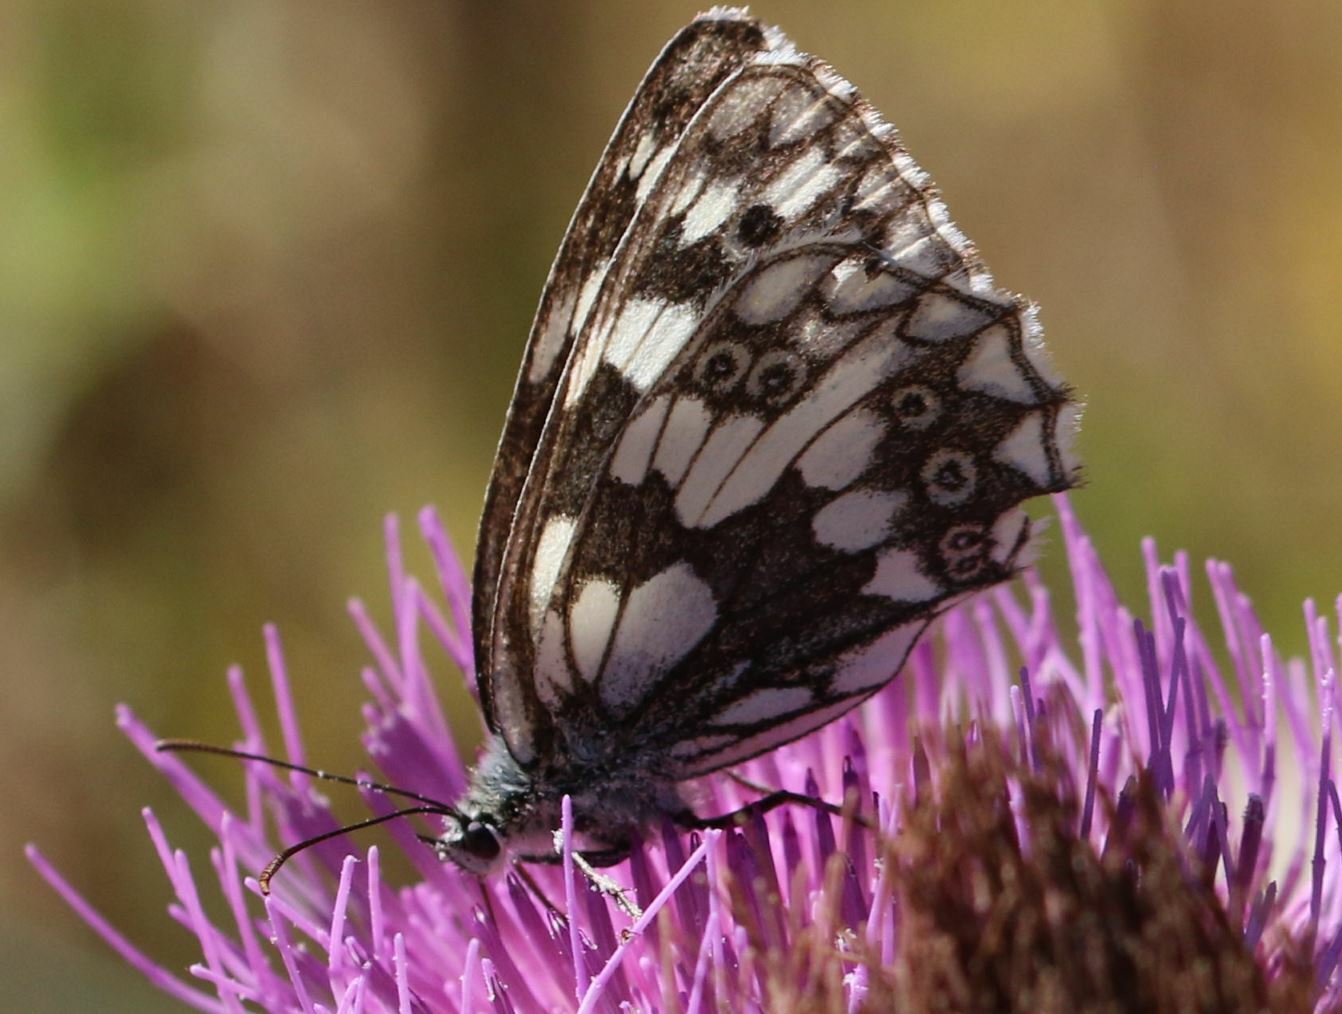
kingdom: Animalia
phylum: Arthropoda
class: Insecta
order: Lepidoptera
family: Nymphalidae
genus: Melanargia
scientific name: Melanargia galathea
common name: Marbled white
